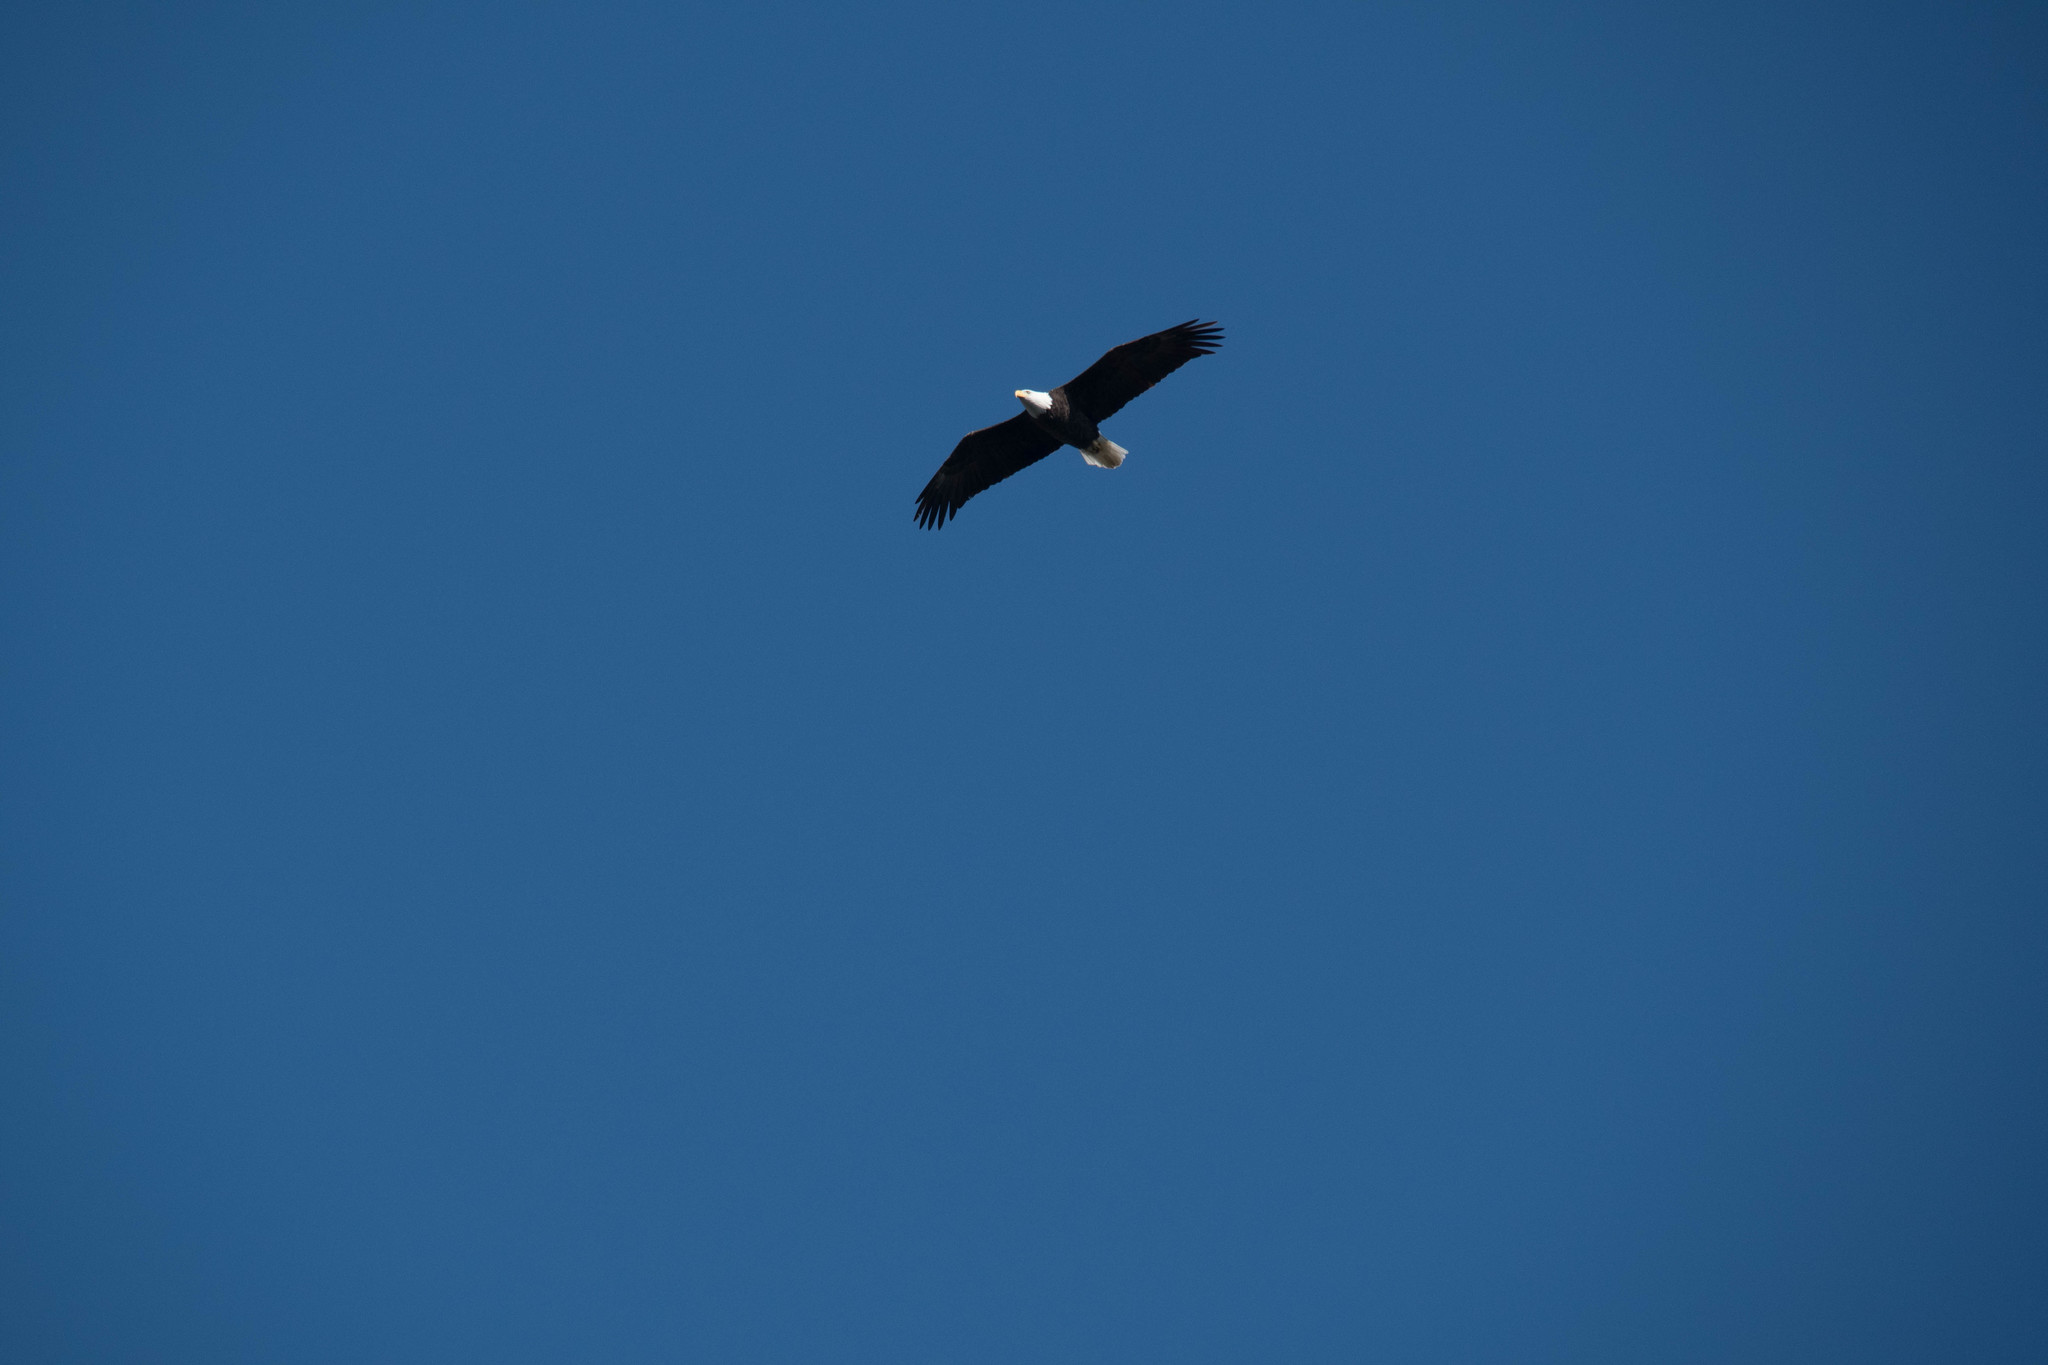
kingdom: Animalia
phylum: Chordata
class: Aves
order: Accipitriformes
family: Accipitridae
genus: Haliaeetus
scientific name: Haliaeetus leucocephalus
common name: Bald eagle
